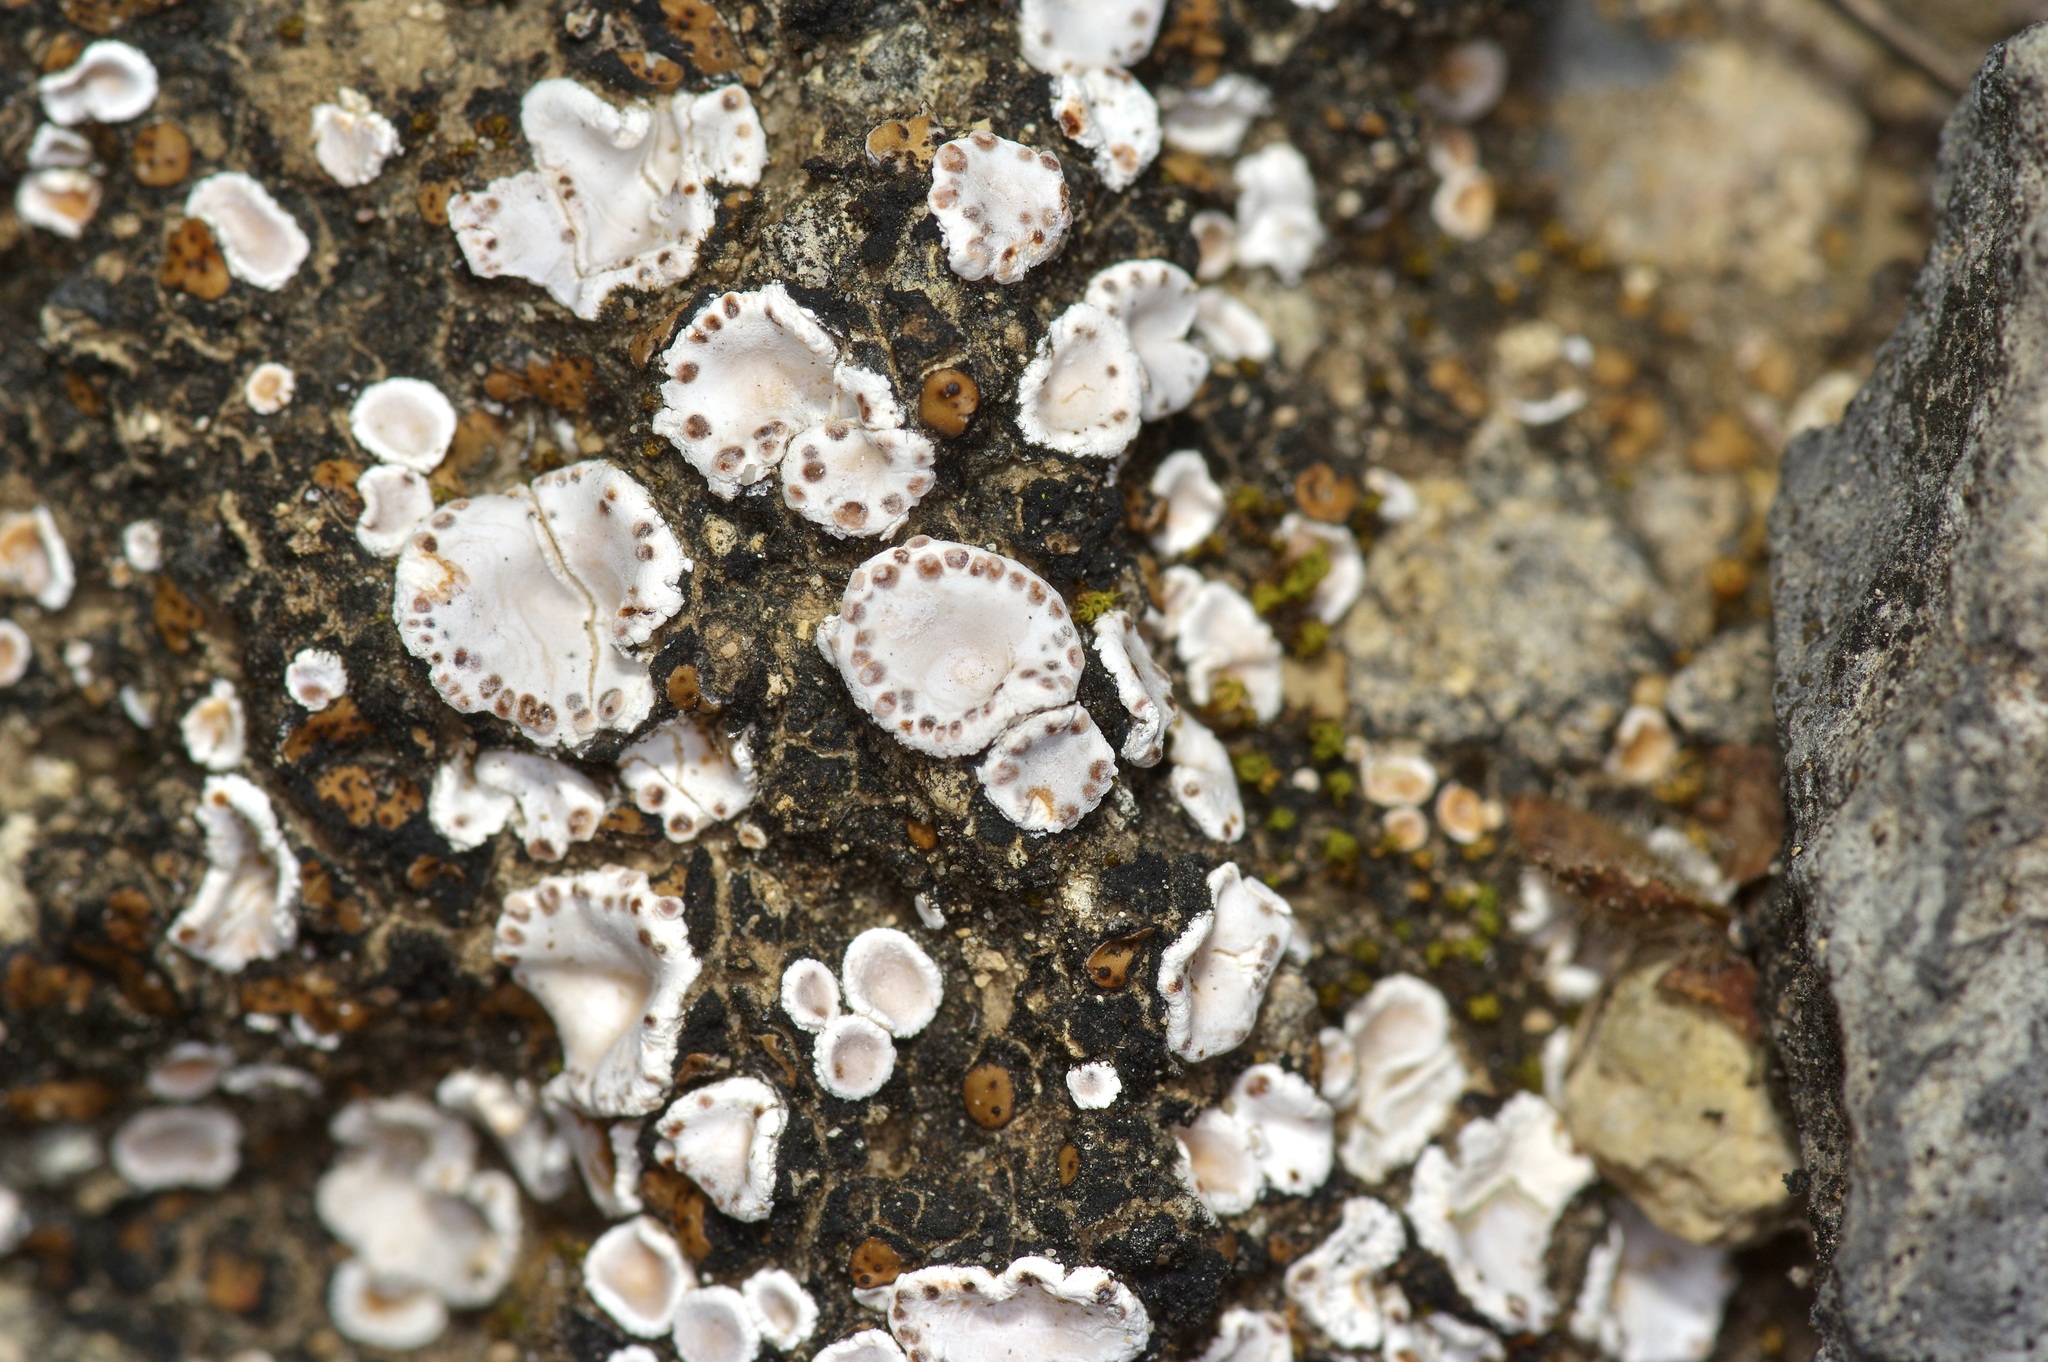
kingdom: Fungi
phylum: Ascomycota
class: Lecanoromycetes
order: Lecanorales
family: Psoraceae
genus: Psora
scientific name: Psora crenata
